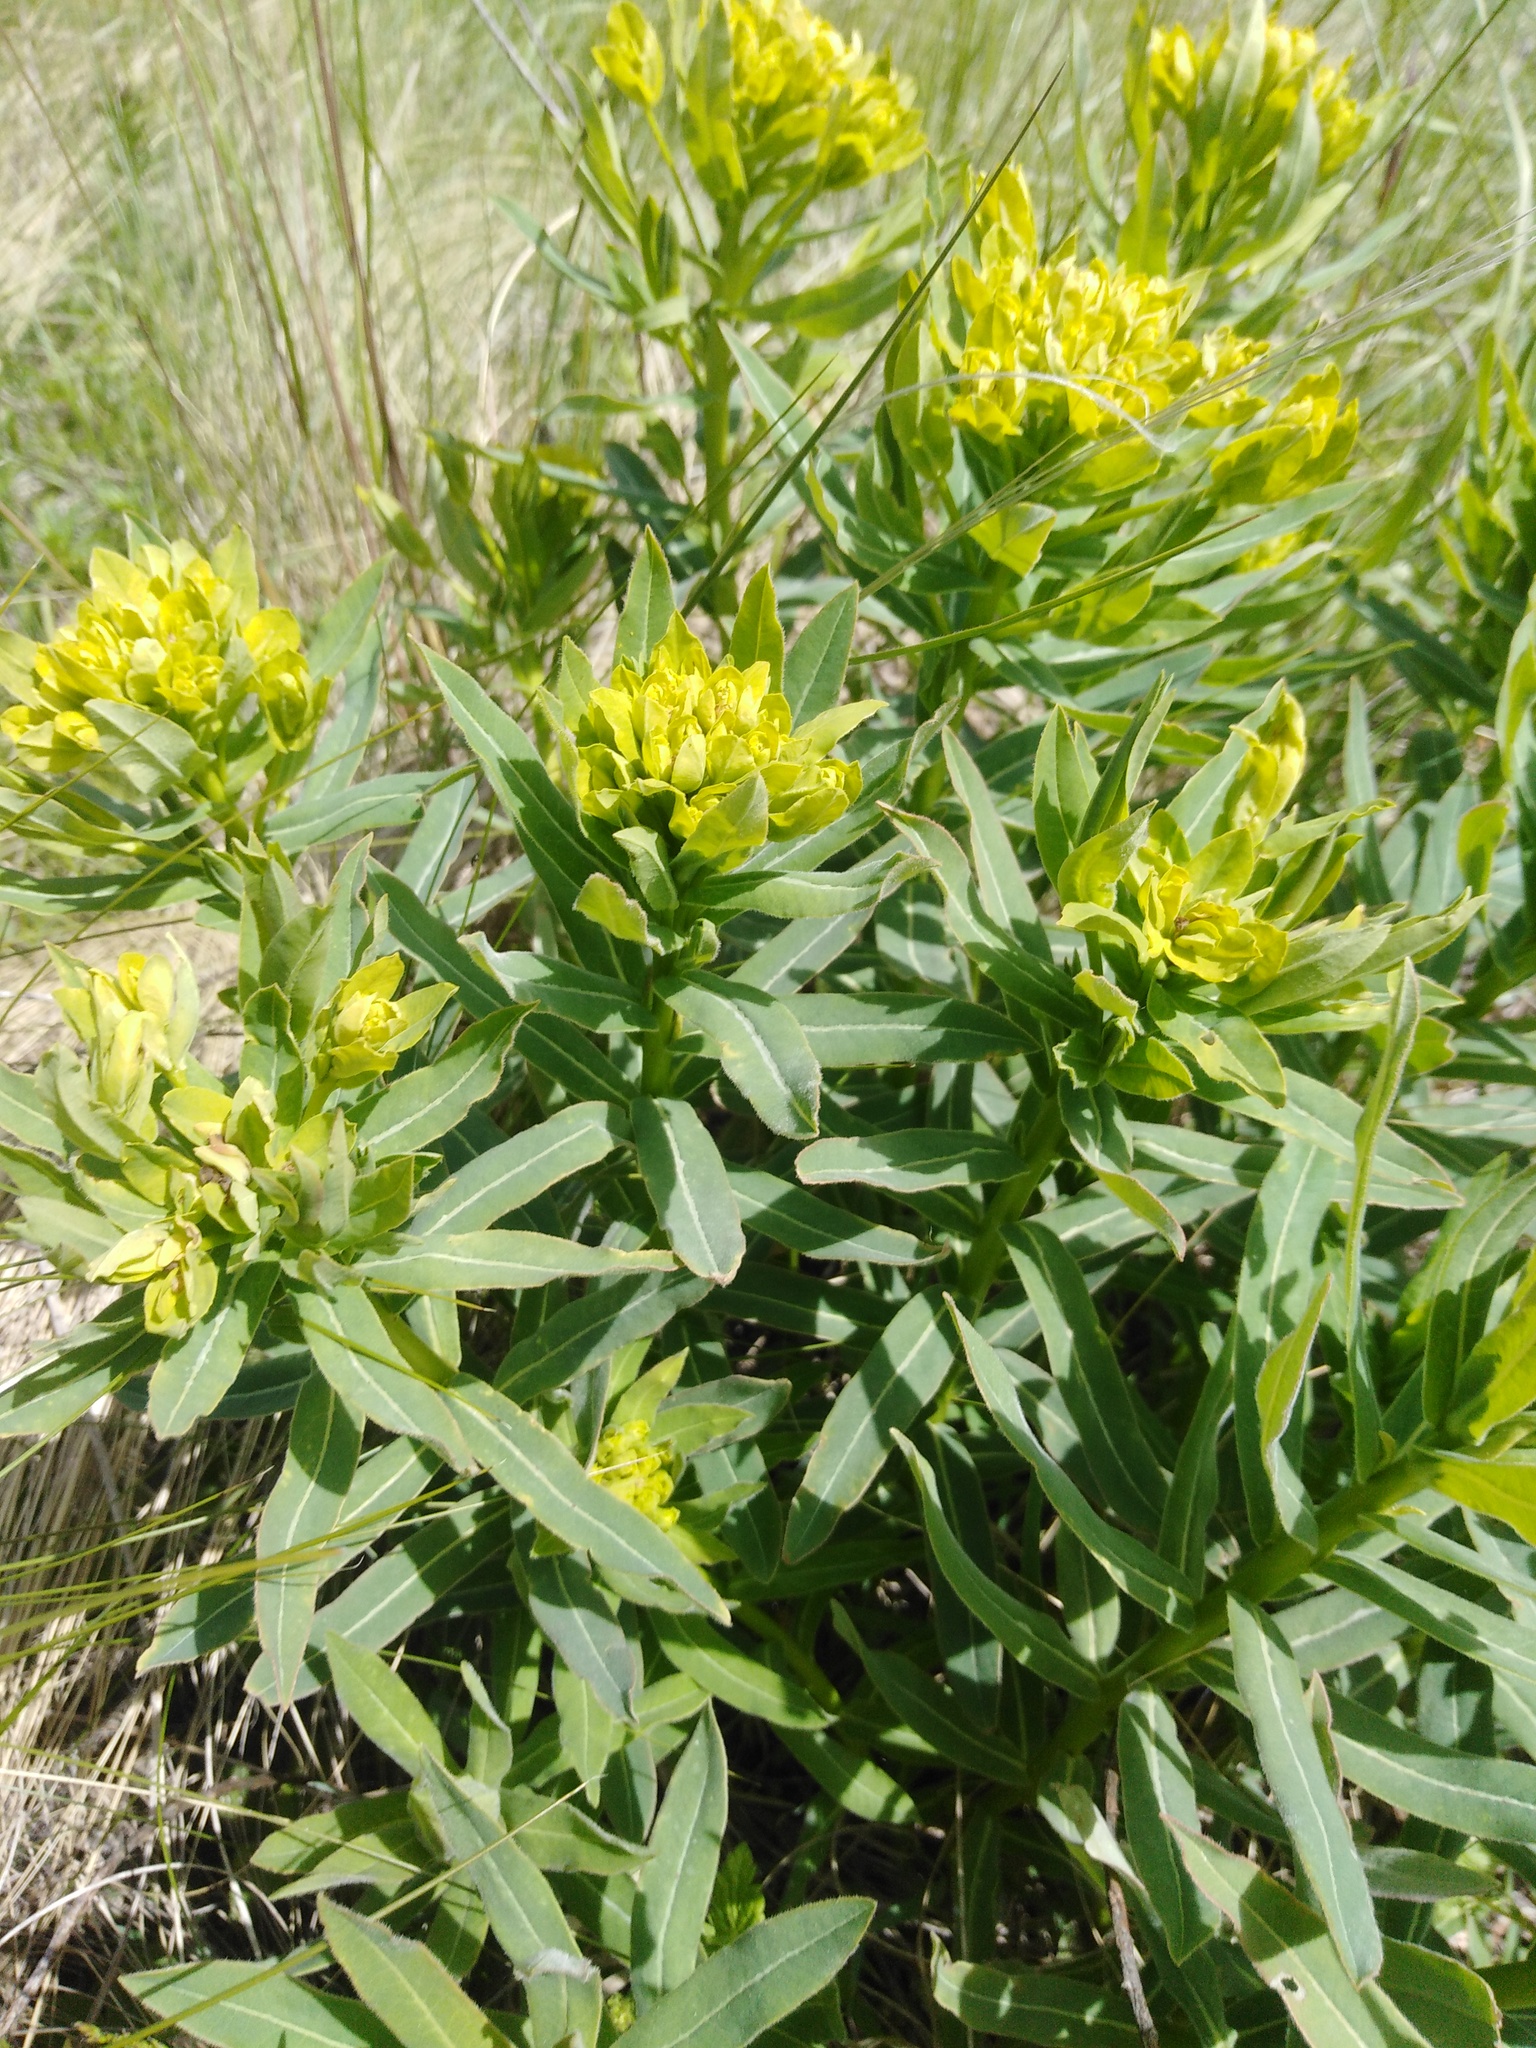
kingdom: Plantae
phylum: Tracheophyta
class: Magnoliopsida
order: Malpighiales
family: Euphorbiaceae
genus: Euphorbia
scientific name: Euphorbia semivillosa
